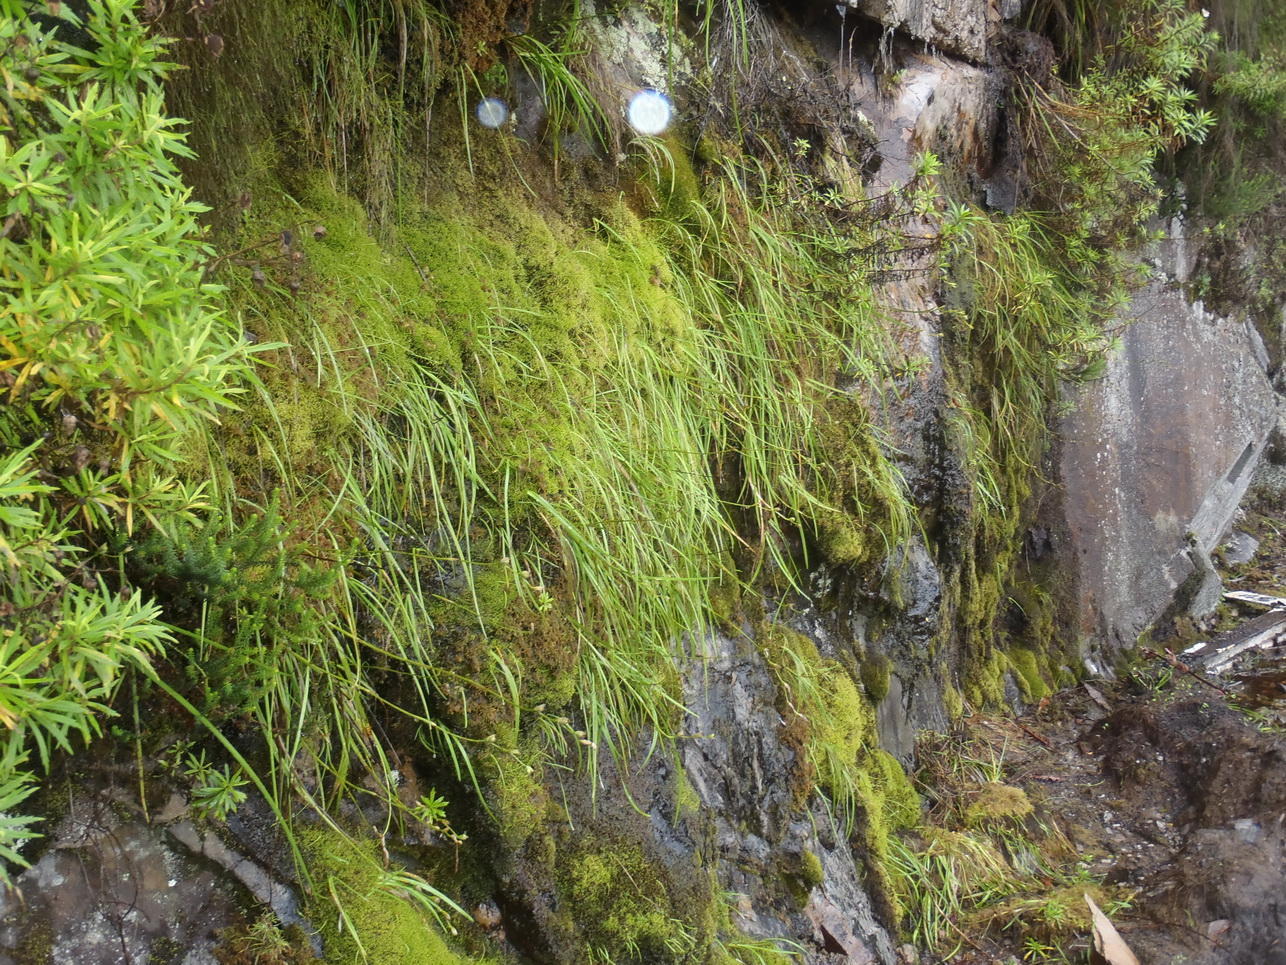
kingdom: Plantae
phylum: Tracheophyta
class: Liliopsida
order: Asparagales
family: Iridaceae
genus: Geissorhiza
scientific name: Geissorhiza outeniquensis
